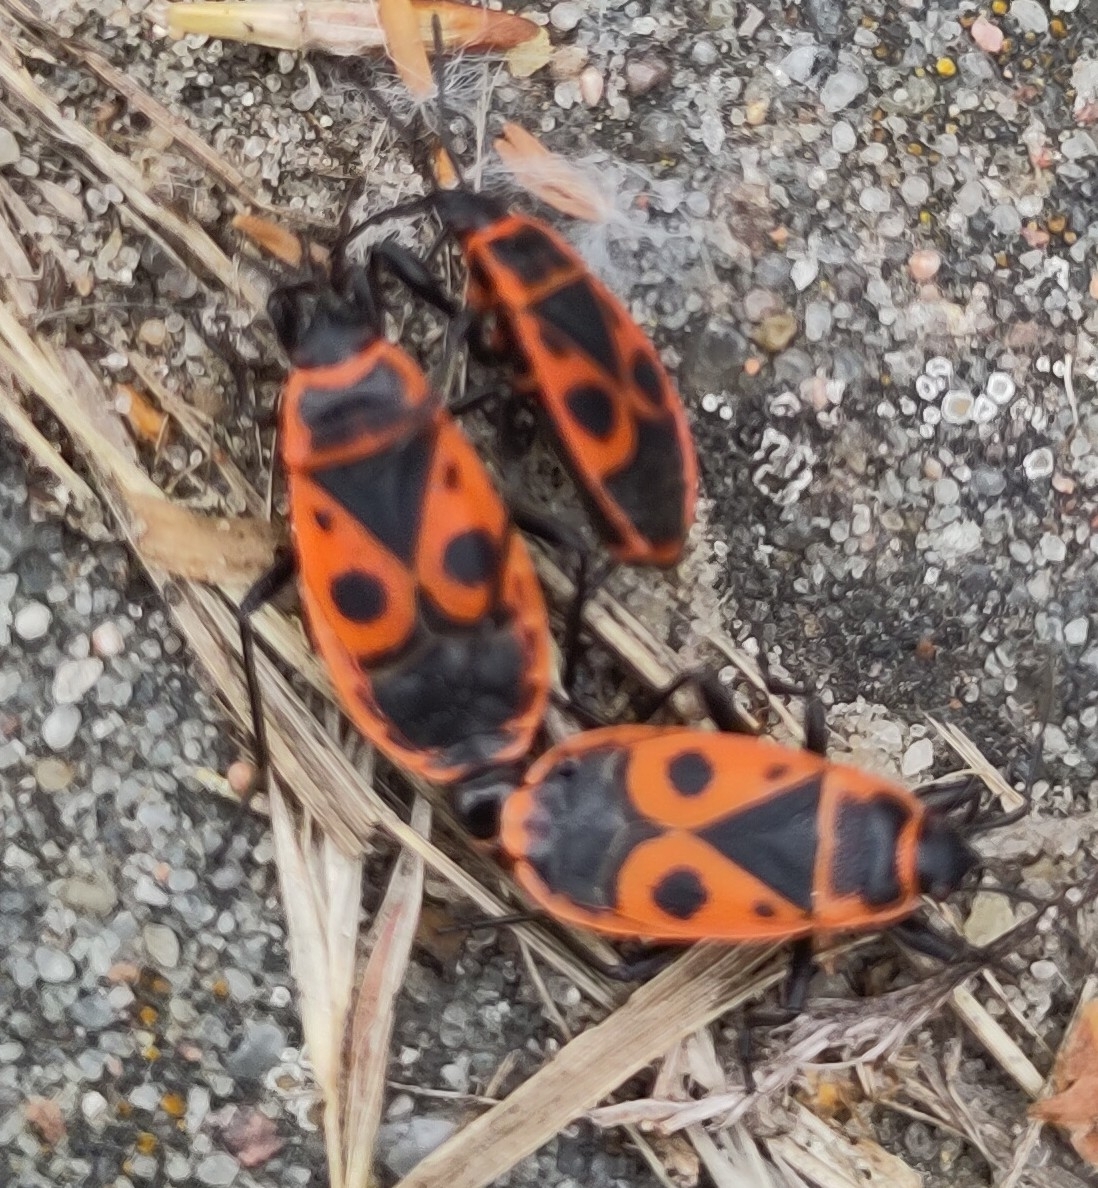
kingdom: Animalia
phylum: Arthropoda
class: Insecta
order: Hemiptera
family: Pyrrhocoridae
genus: Pyrrhocoris
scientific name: Pyrrhocoris apterus
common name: Firebug
